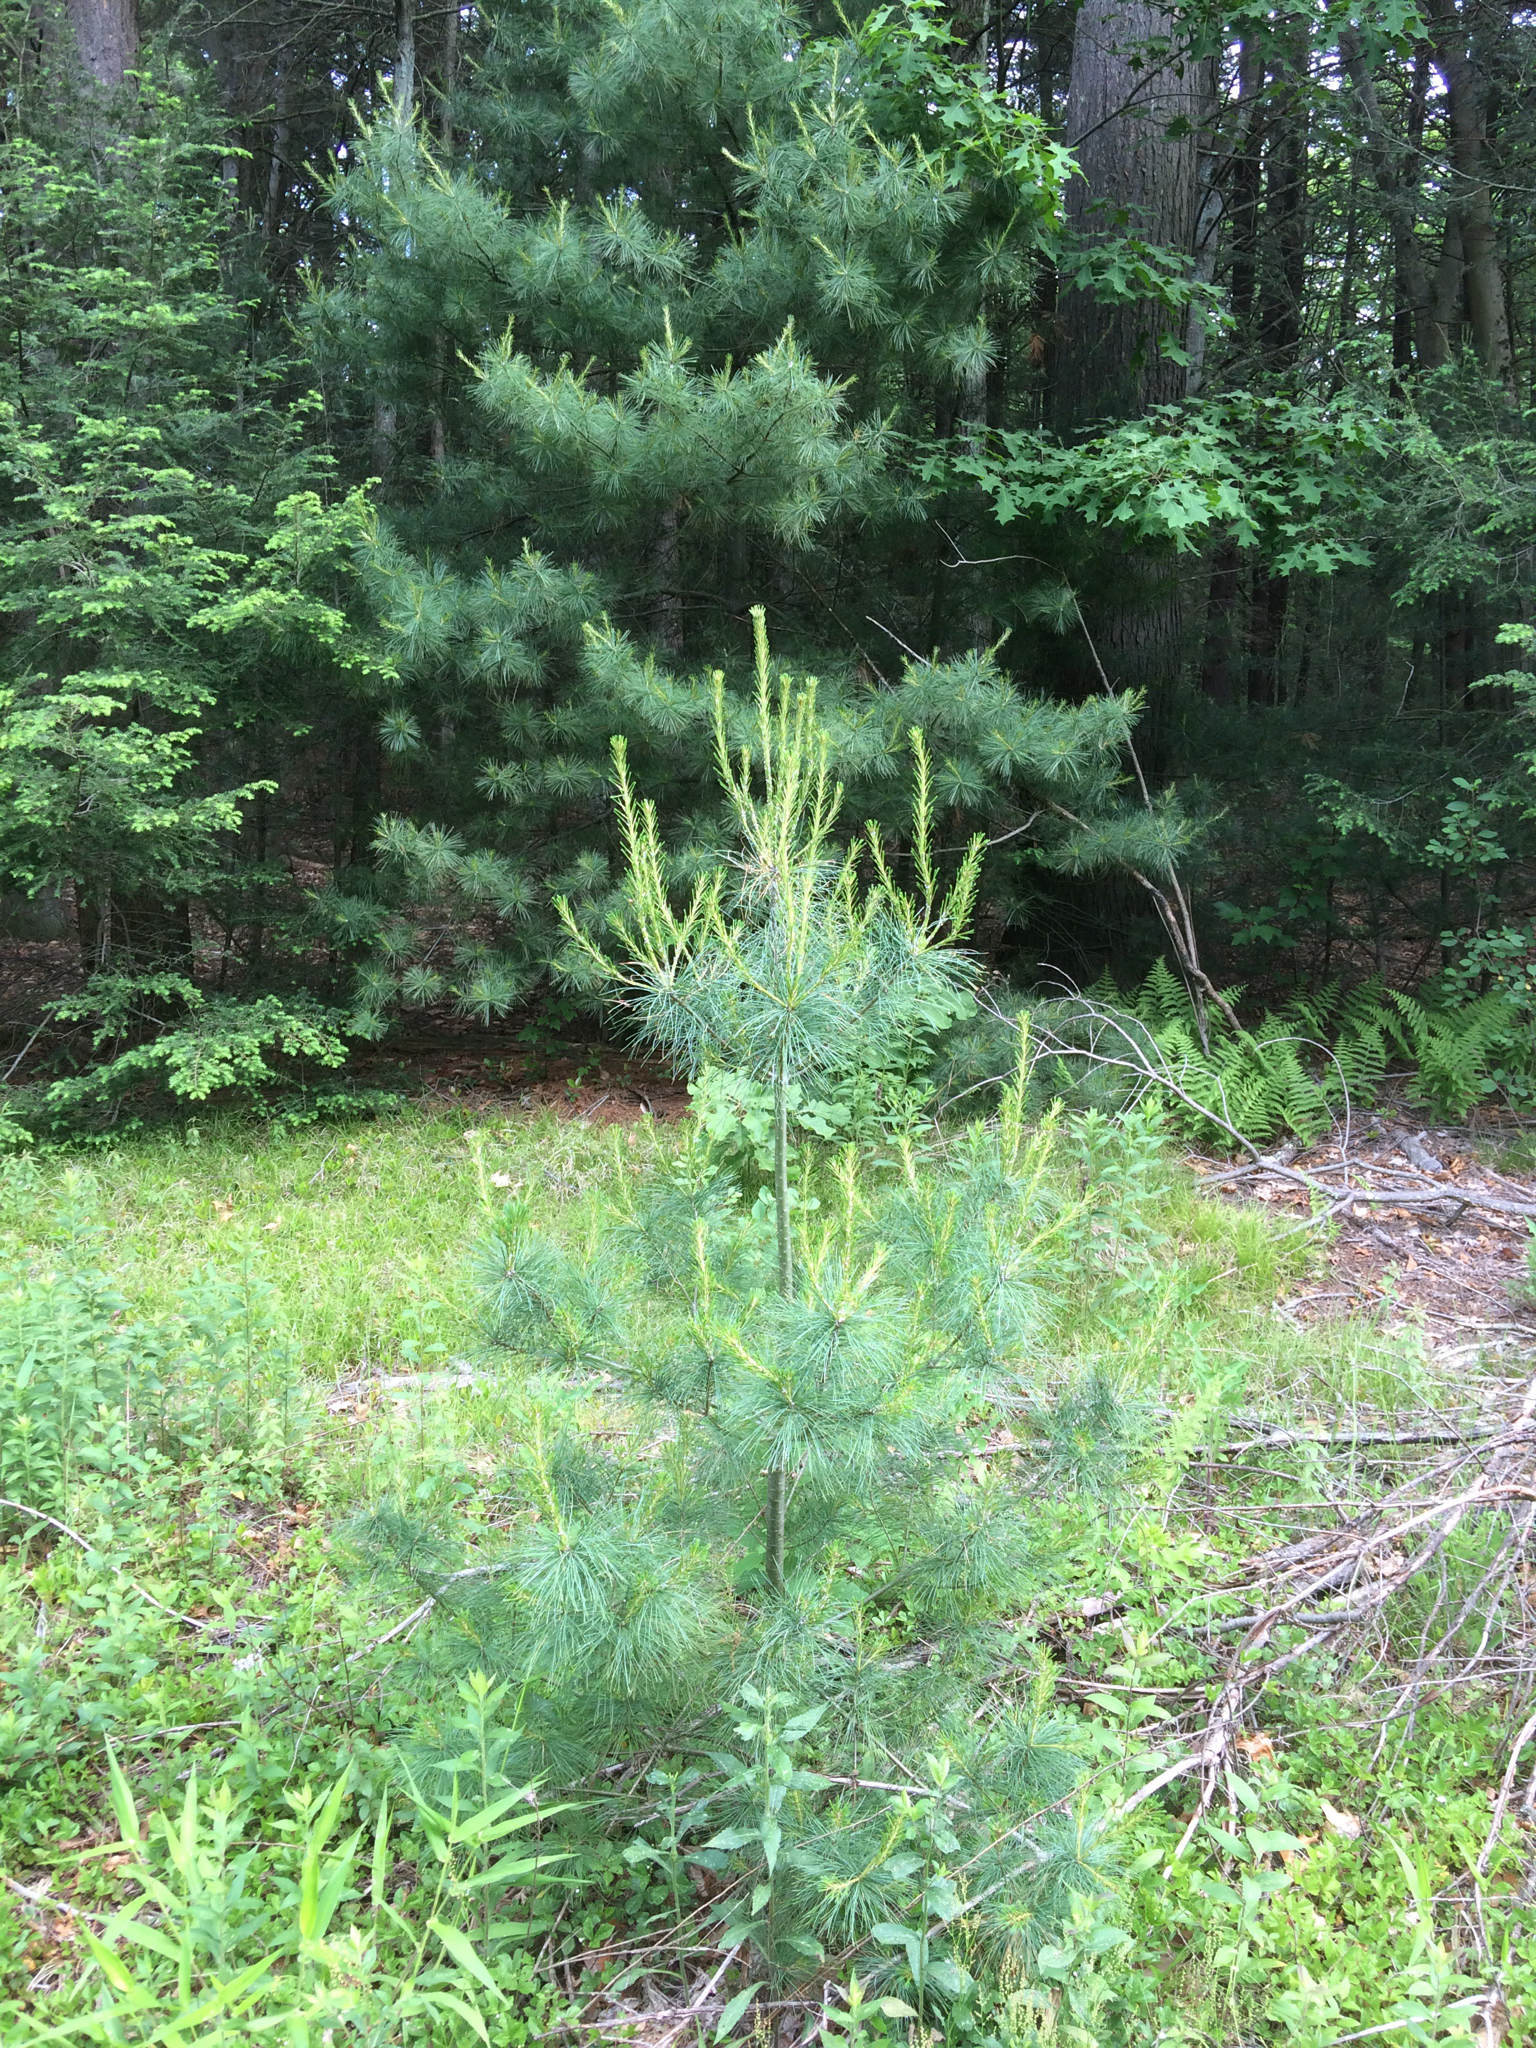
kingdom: Plantae
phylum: Tracheophyta
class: Pinopsida
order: Pinales
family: Pinaceae
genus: Pinus
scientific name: Pinus strobus
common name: Weymouth pine
